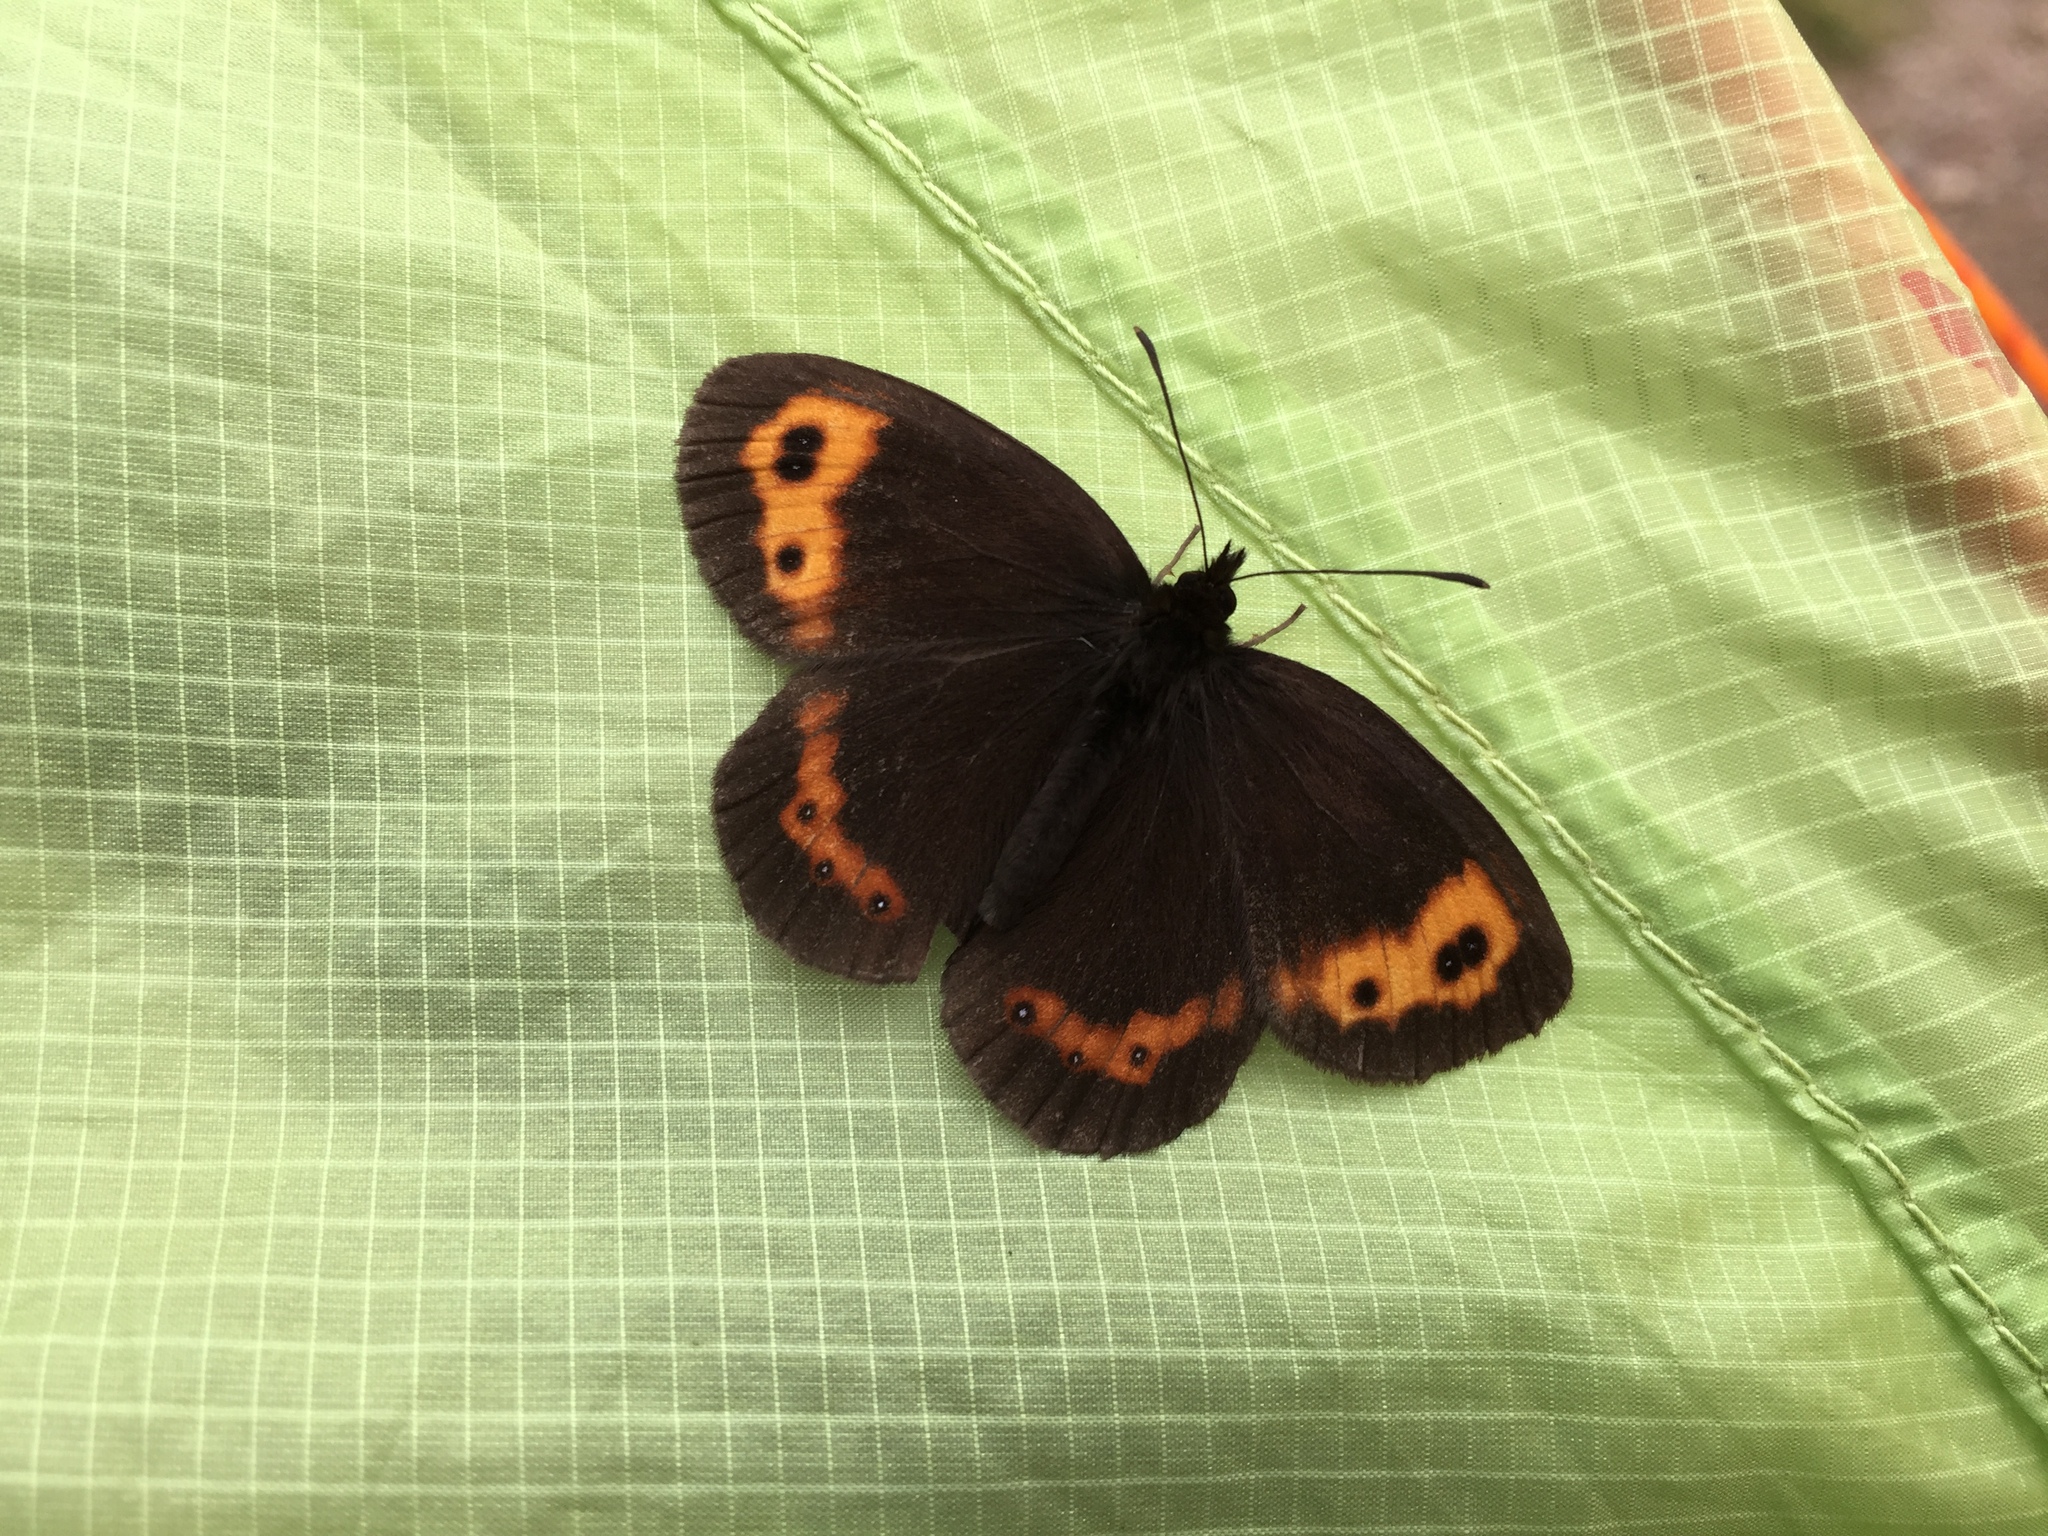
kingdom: Animalia
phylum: Arthropoda
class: Insecta
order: Lepidoptera
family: Nymphalidae
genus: Erebia
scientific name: Erebia niphonica
